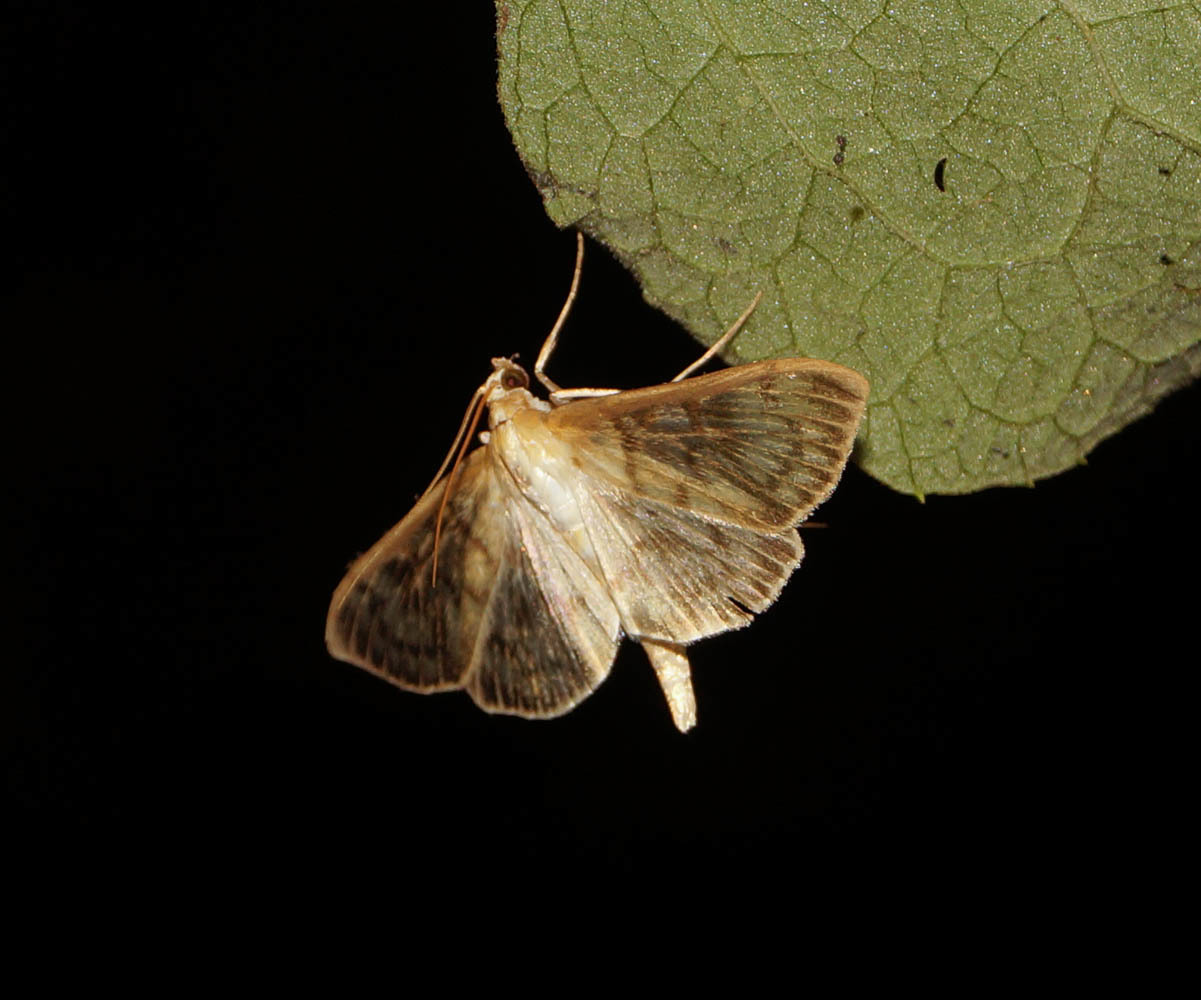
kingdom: Animalia
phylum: Arthropoda
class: Insecta
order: Lepidoptera
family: Crambidae
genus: Patania
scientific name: Patania ruralis
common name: Mother of pearl
